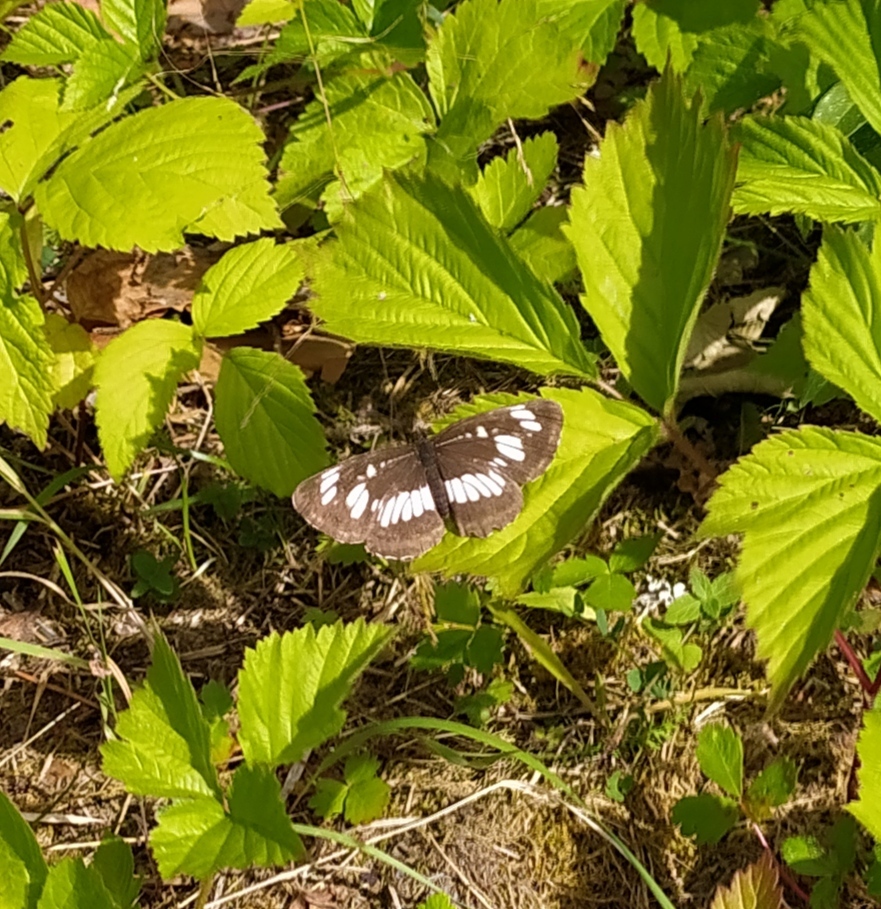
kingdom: Animalia
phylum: Arthropoda
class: Insecta
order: Lepidoptera
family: Nymphalidae
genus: Neptis
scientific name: Neptis rivularis
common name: Hungarian glider
